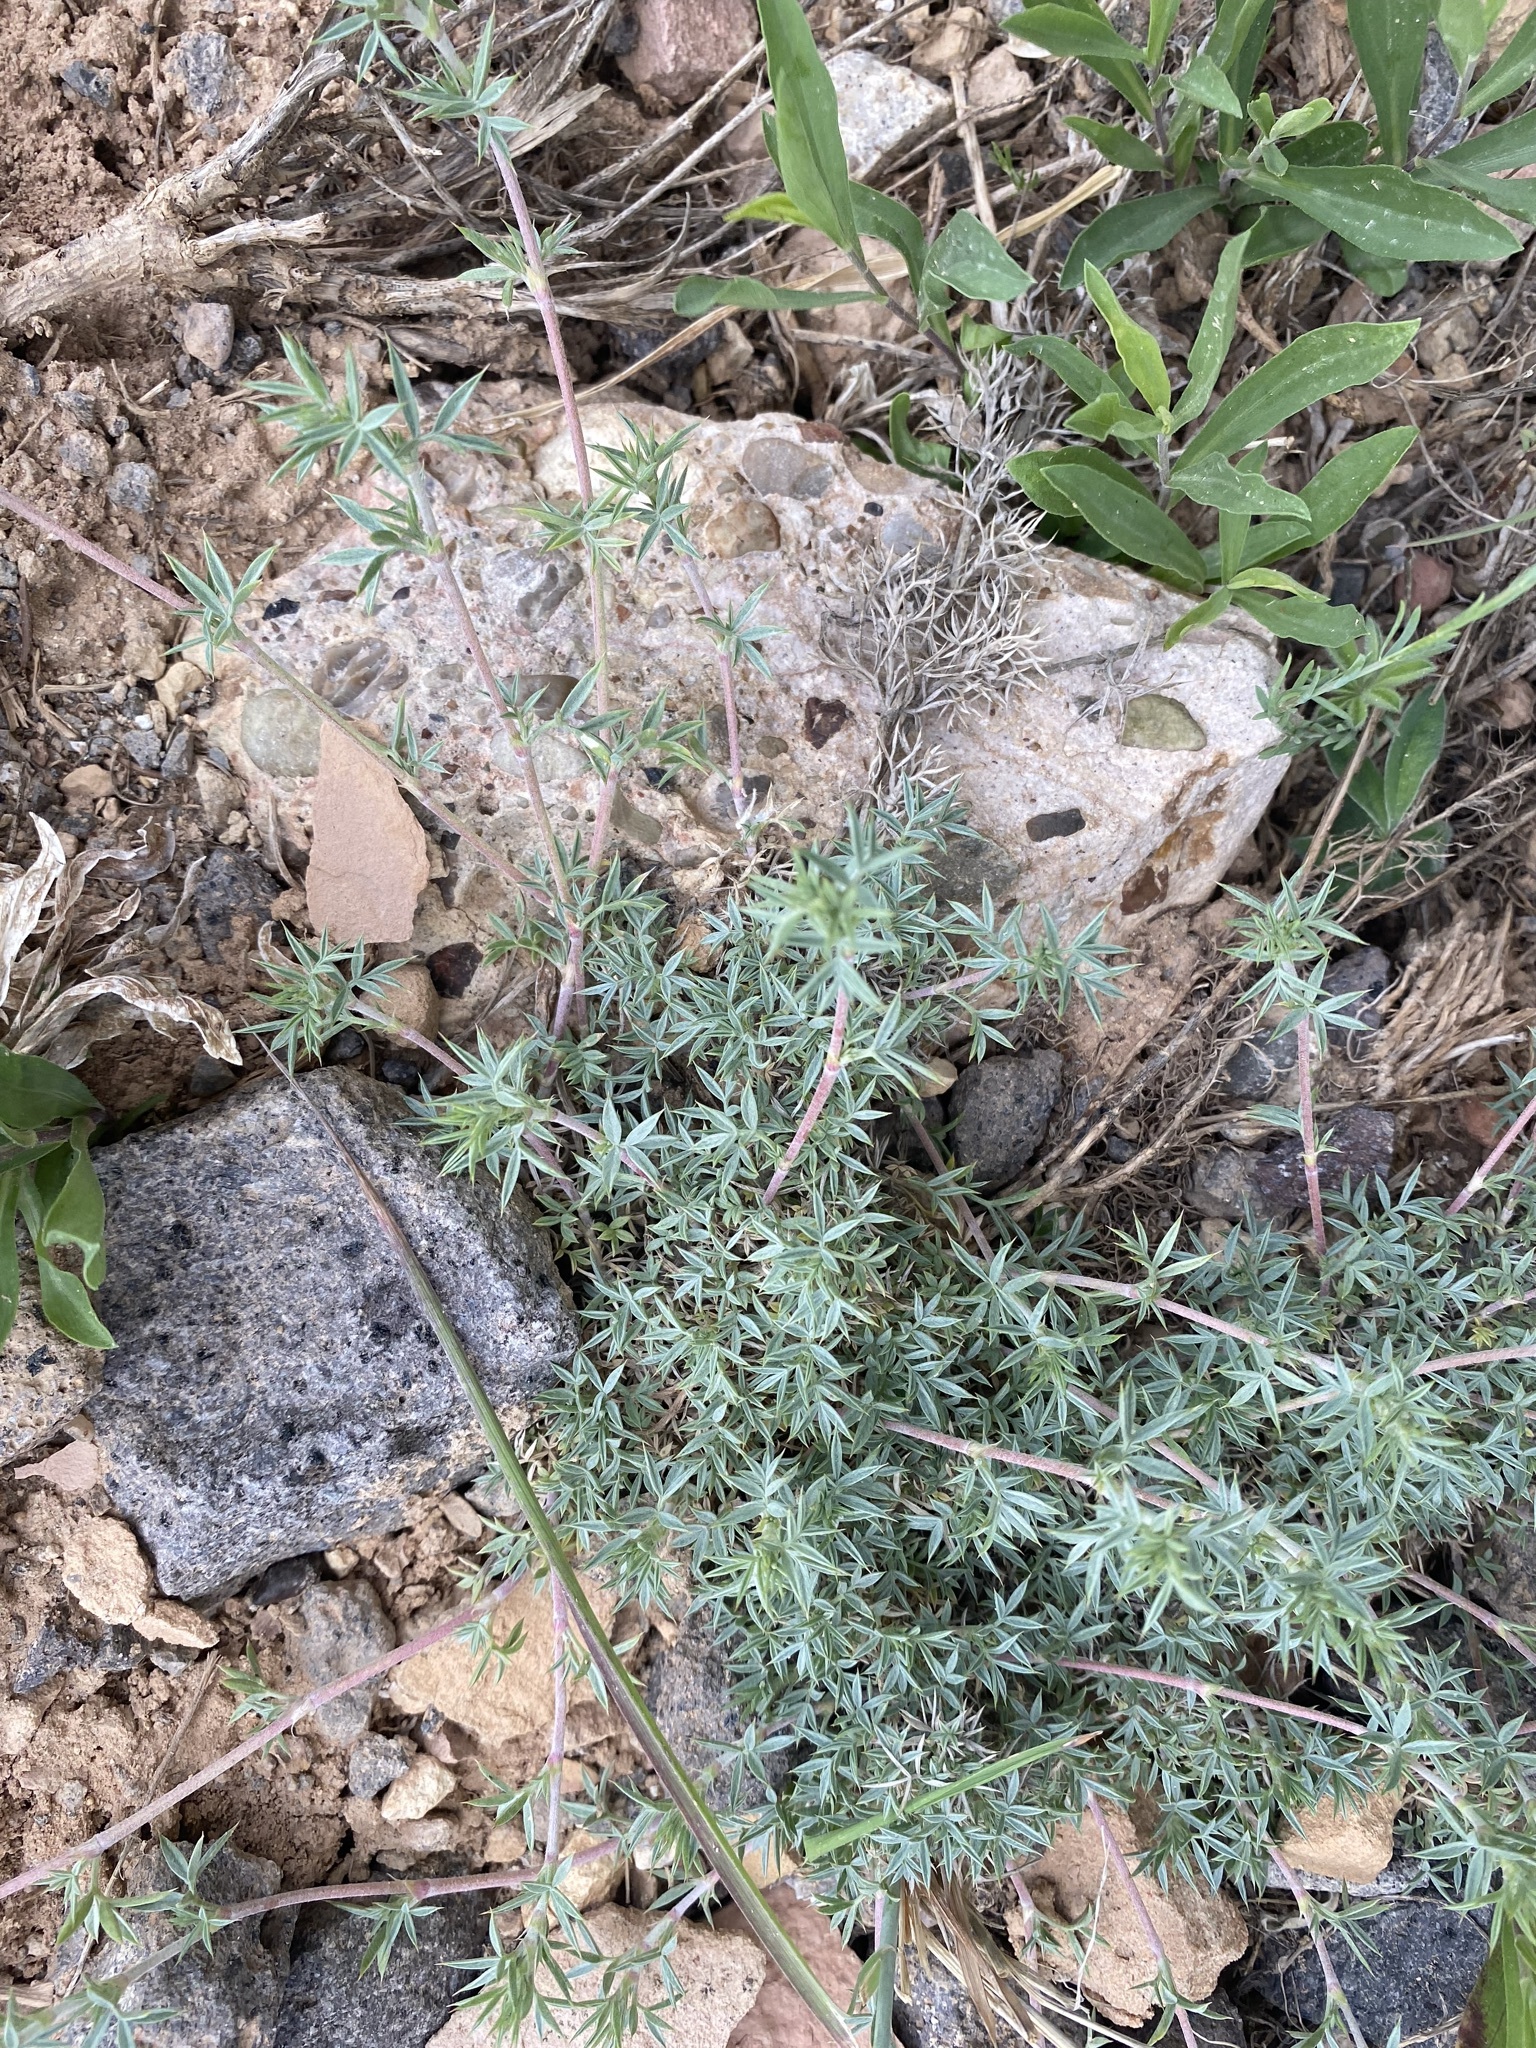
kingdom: Plantae
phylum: Tracheophyta
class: Magnoliopsida
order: Fabales
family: Fabaceae
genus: Astragalus
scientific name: Astragalus kentrophyta
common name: Prickly milk-vetch
